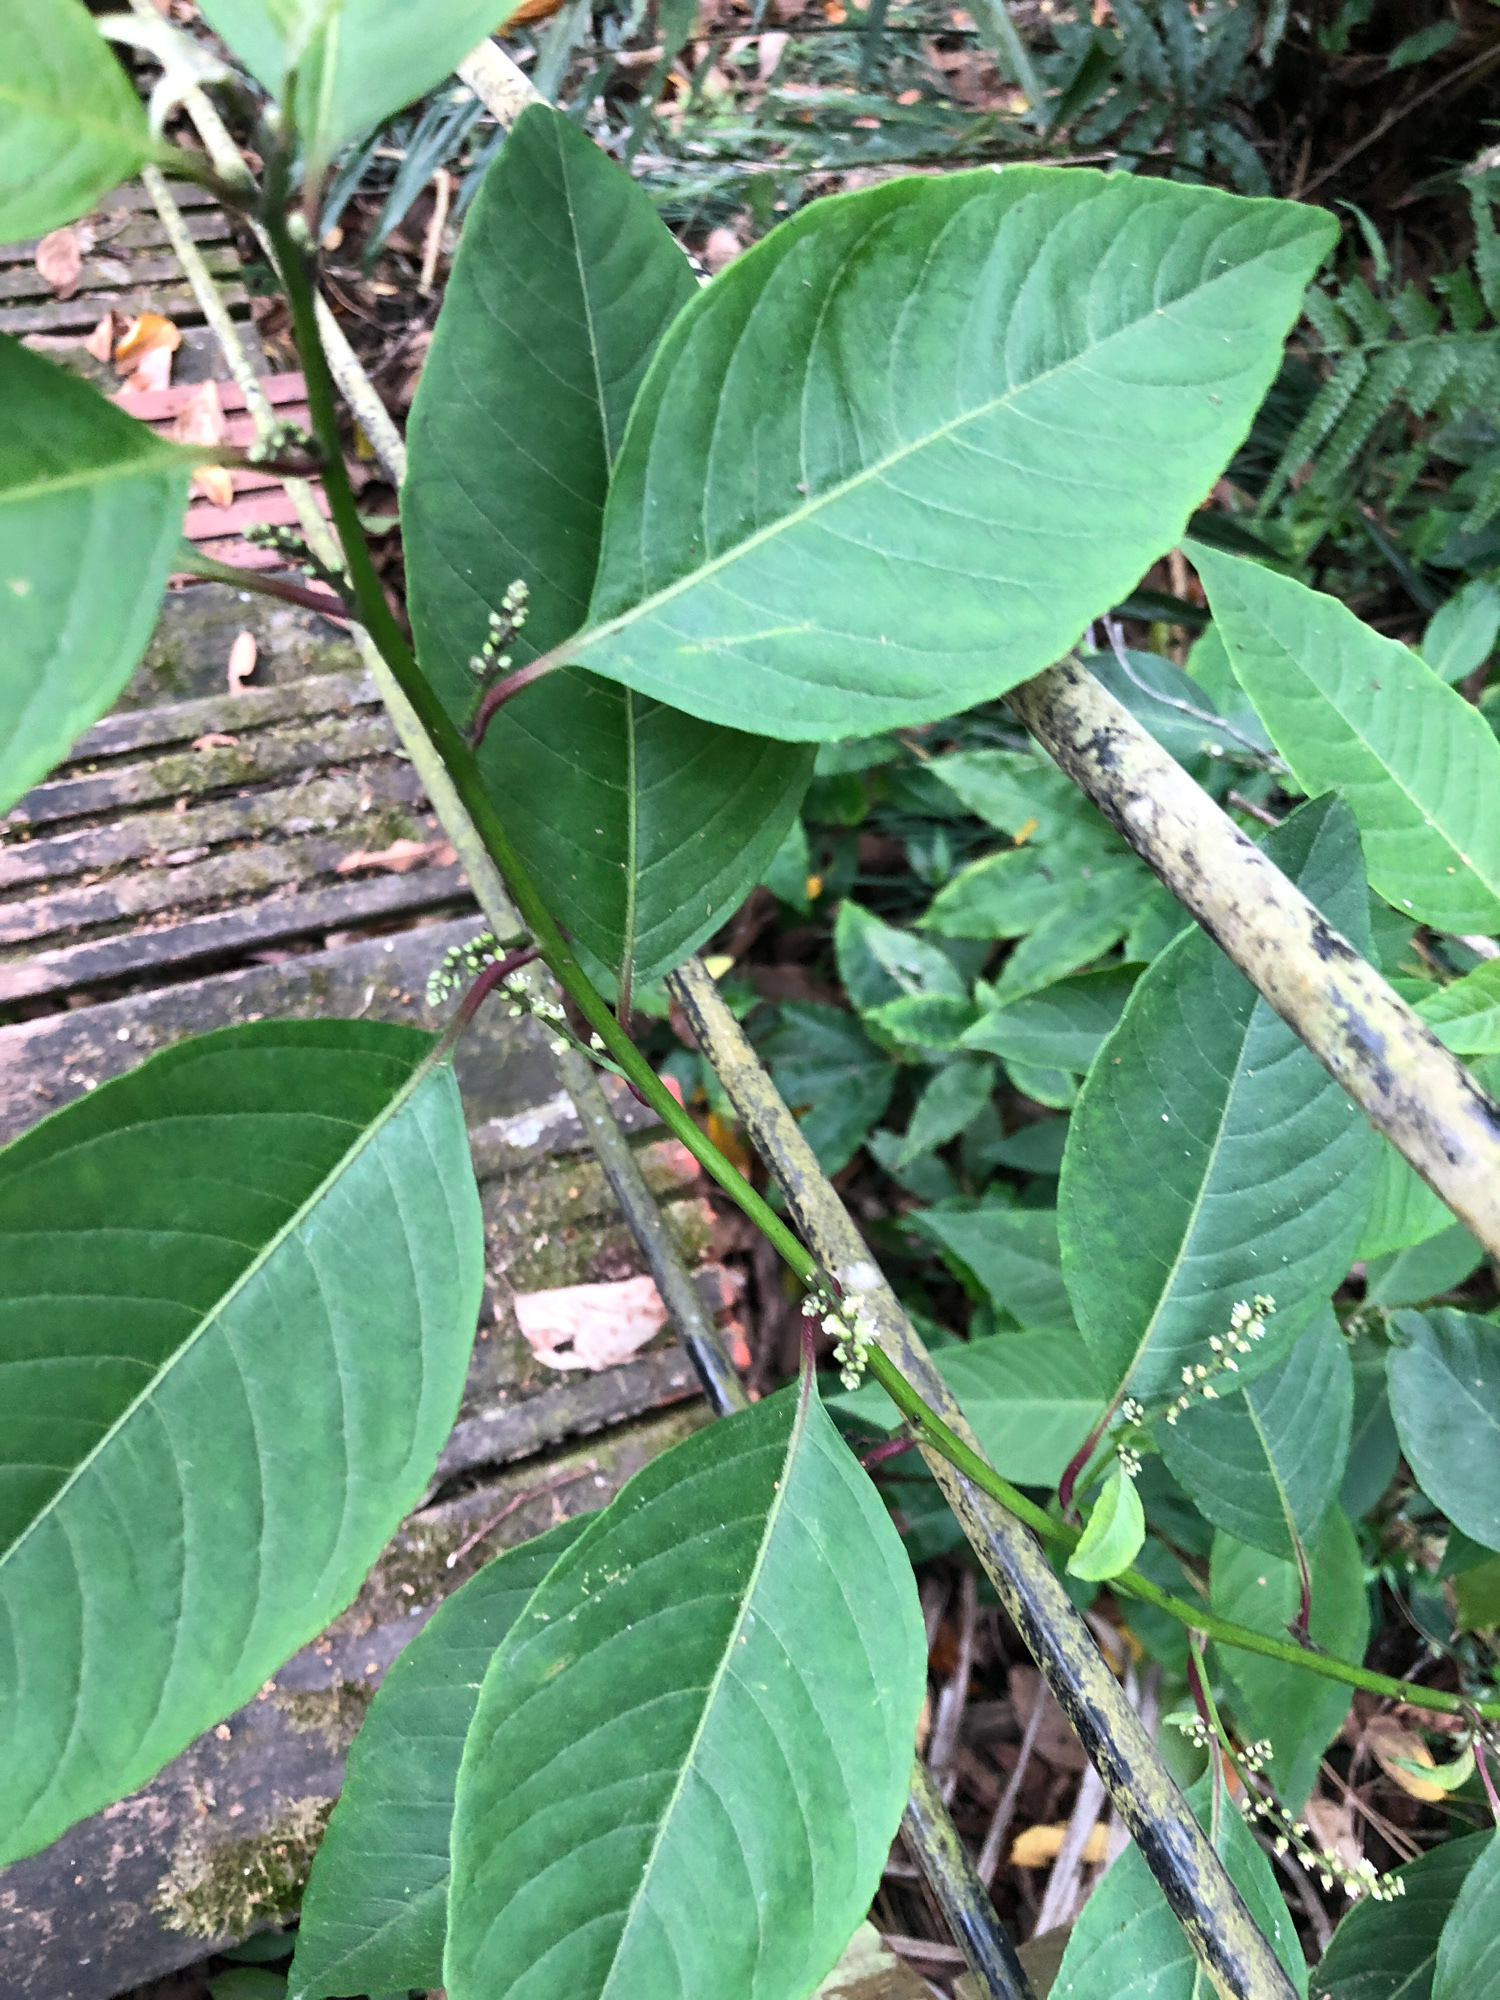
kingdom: Plantae
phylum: Tracheophyta
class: Magnoliopsida
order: Caryophyllales
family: Amaranthaceae
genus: Deeringia
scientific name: Deeringia polysperma
